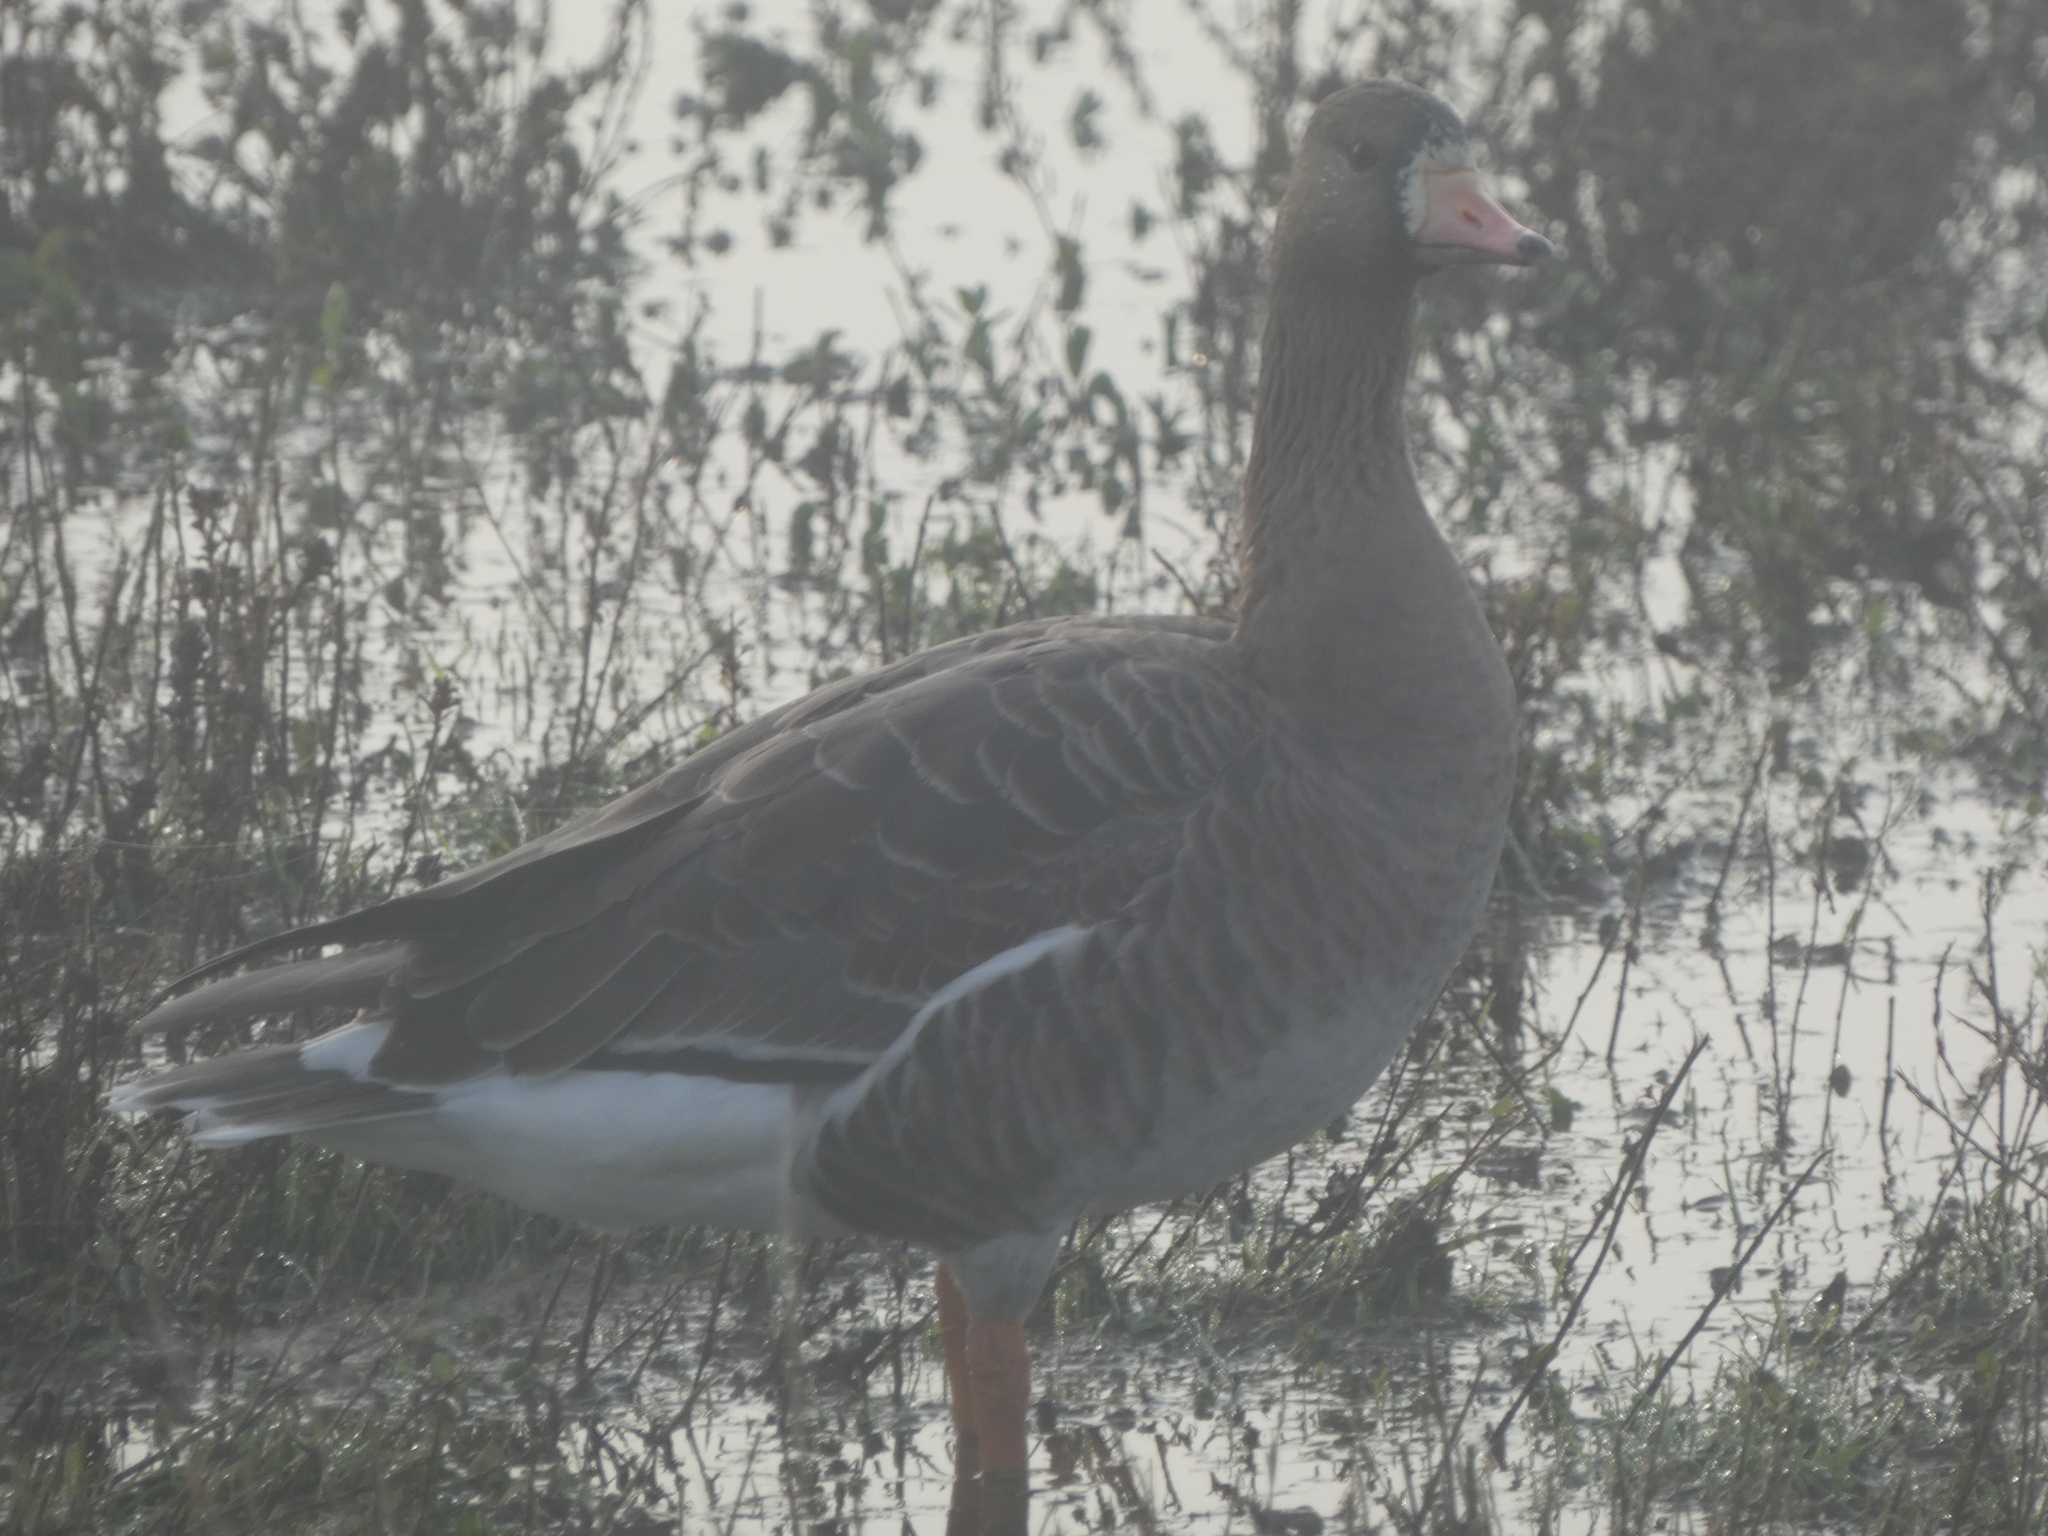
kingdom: Animalia
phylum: Chordata
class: Aves
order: Anseriformes
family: Anatidae
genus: Anser
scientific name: Anser albifrons
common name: Greater white-fronted goose
